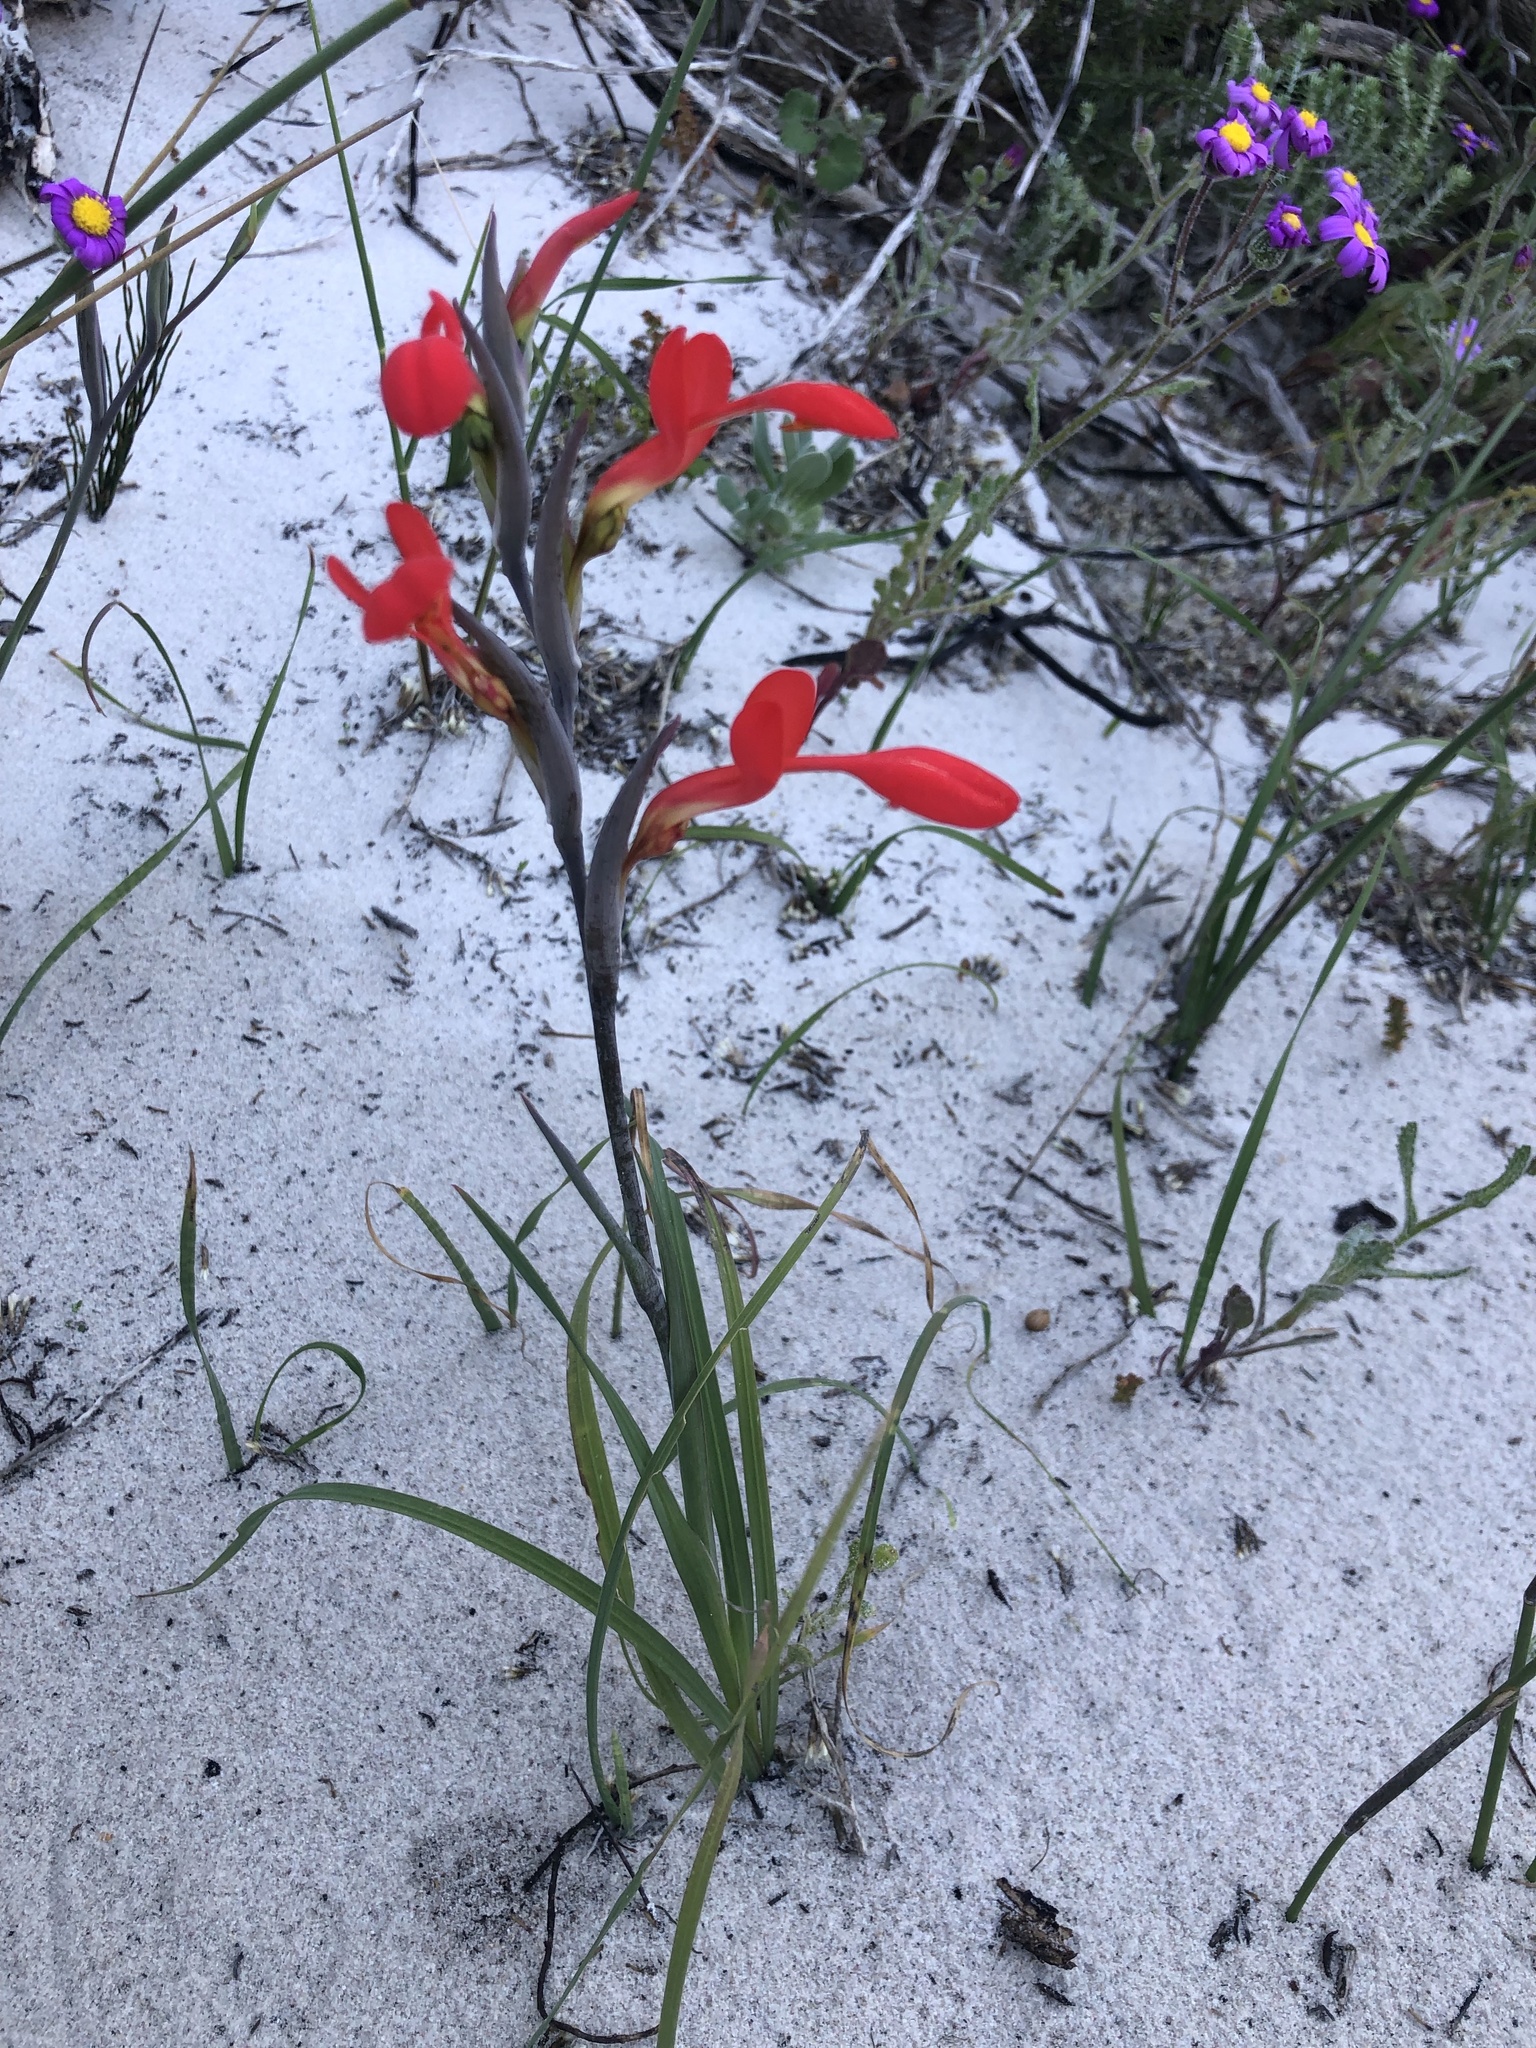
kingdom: Plantae
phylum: Tracheophyta
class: Liliopsida
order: Asparagales
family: Iridaceae
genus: Gladiolus
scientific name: Gladiolus cunonius
